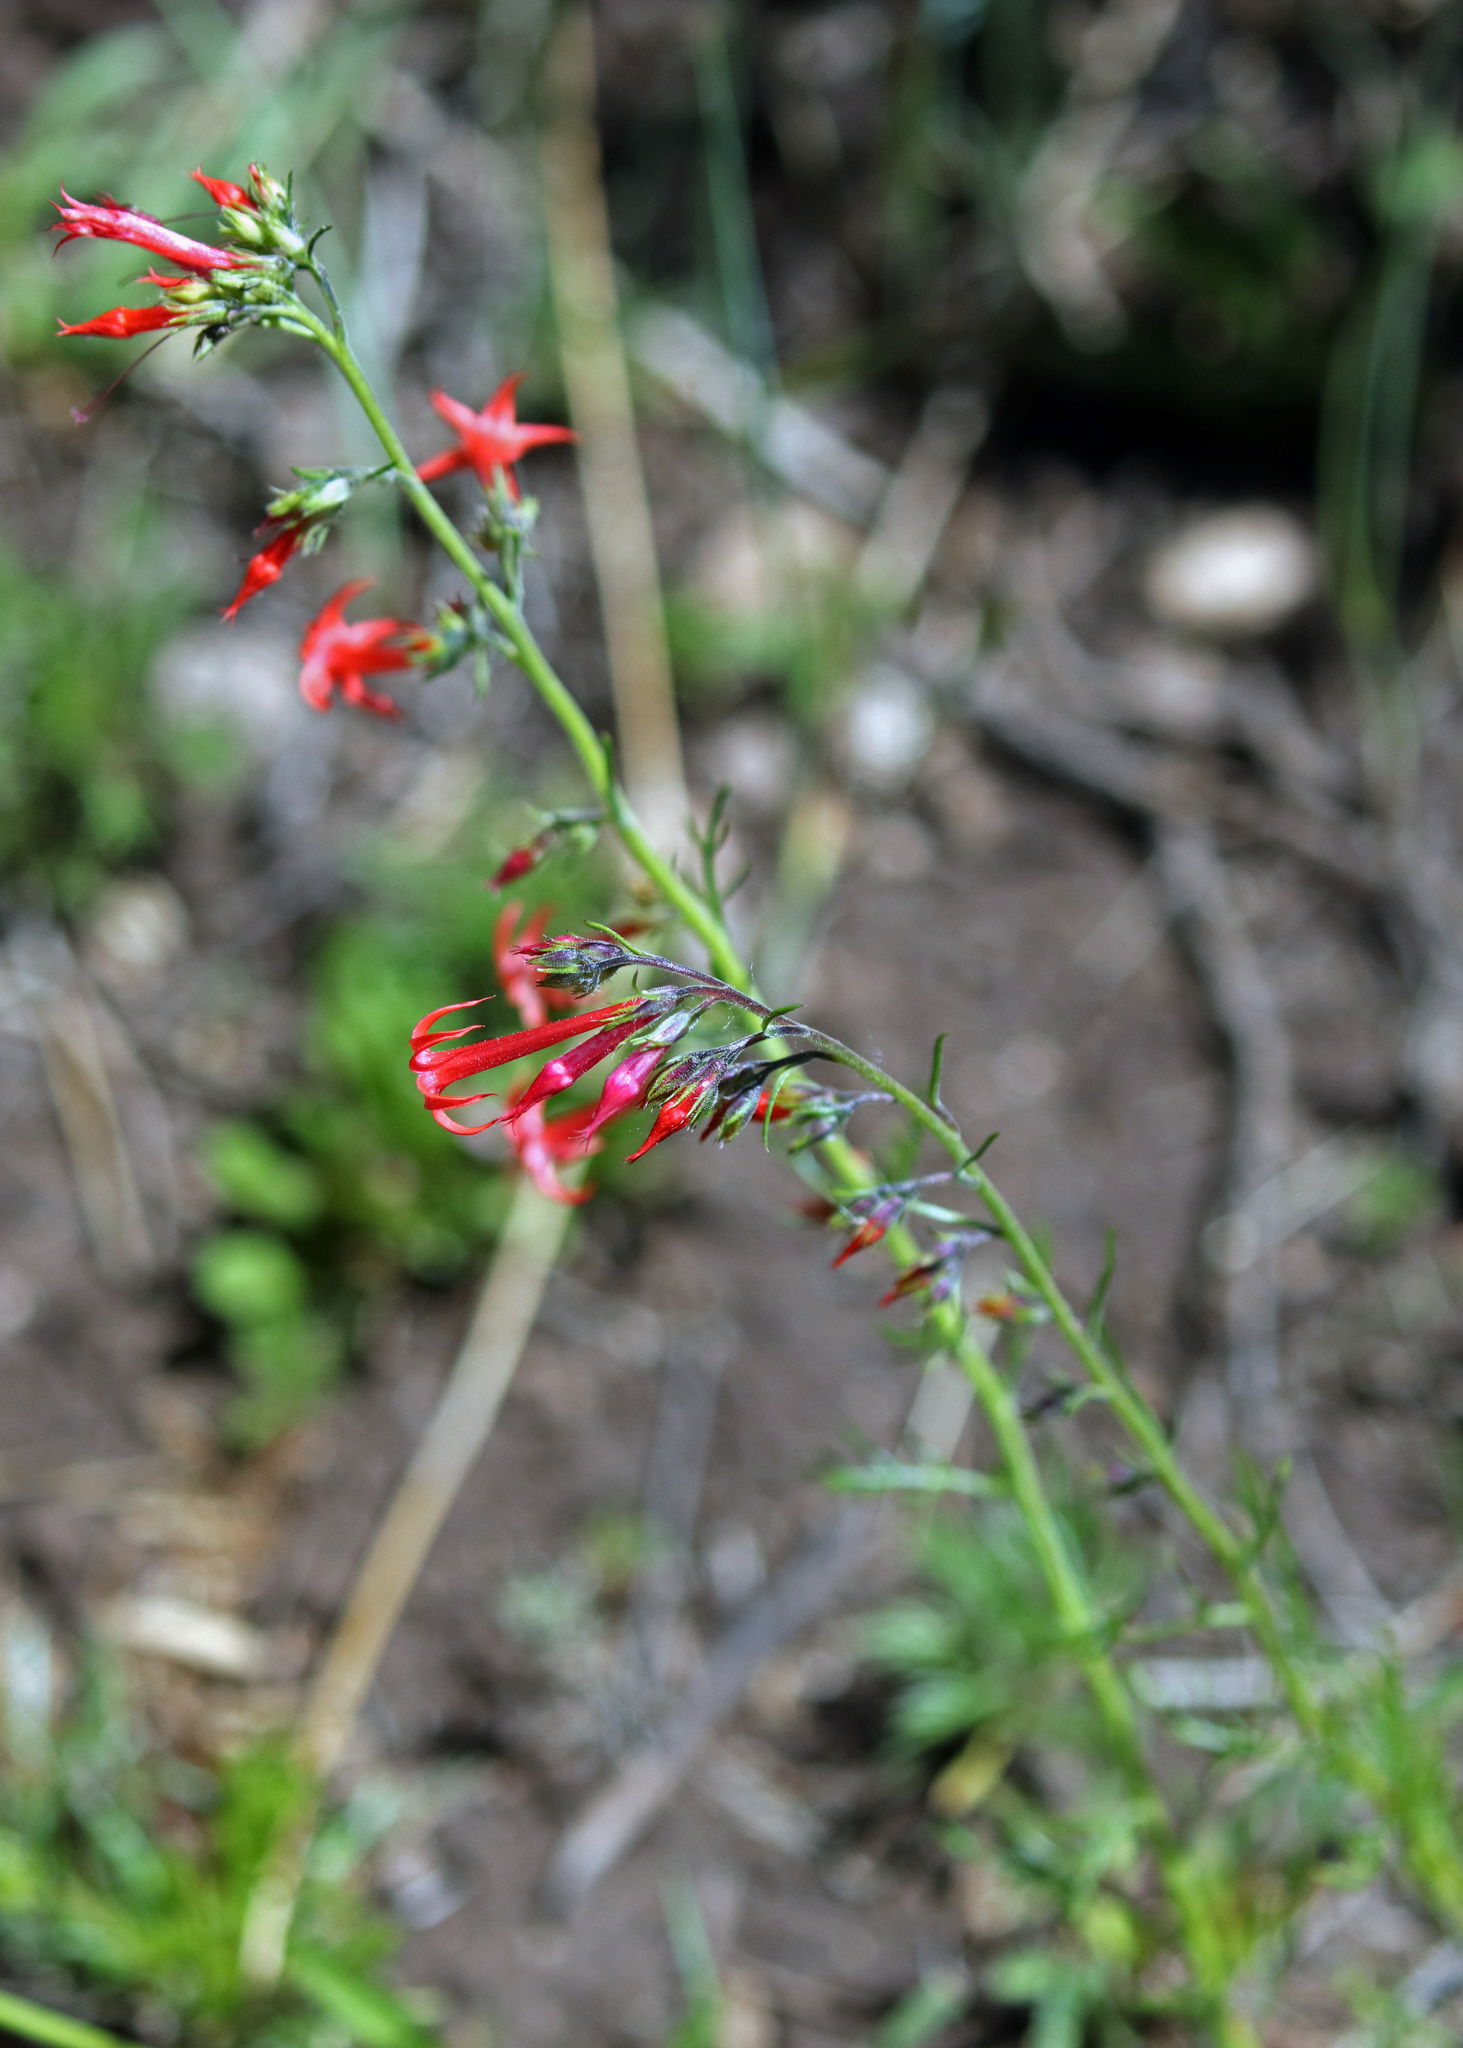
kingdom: Plantae
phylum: Tracheophyta
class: Magnoliopsida
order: Ericales
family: Polemoniaceae
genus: Ipomopsis
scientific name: Ipomopsis aggregata
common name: Scarlet gilia
